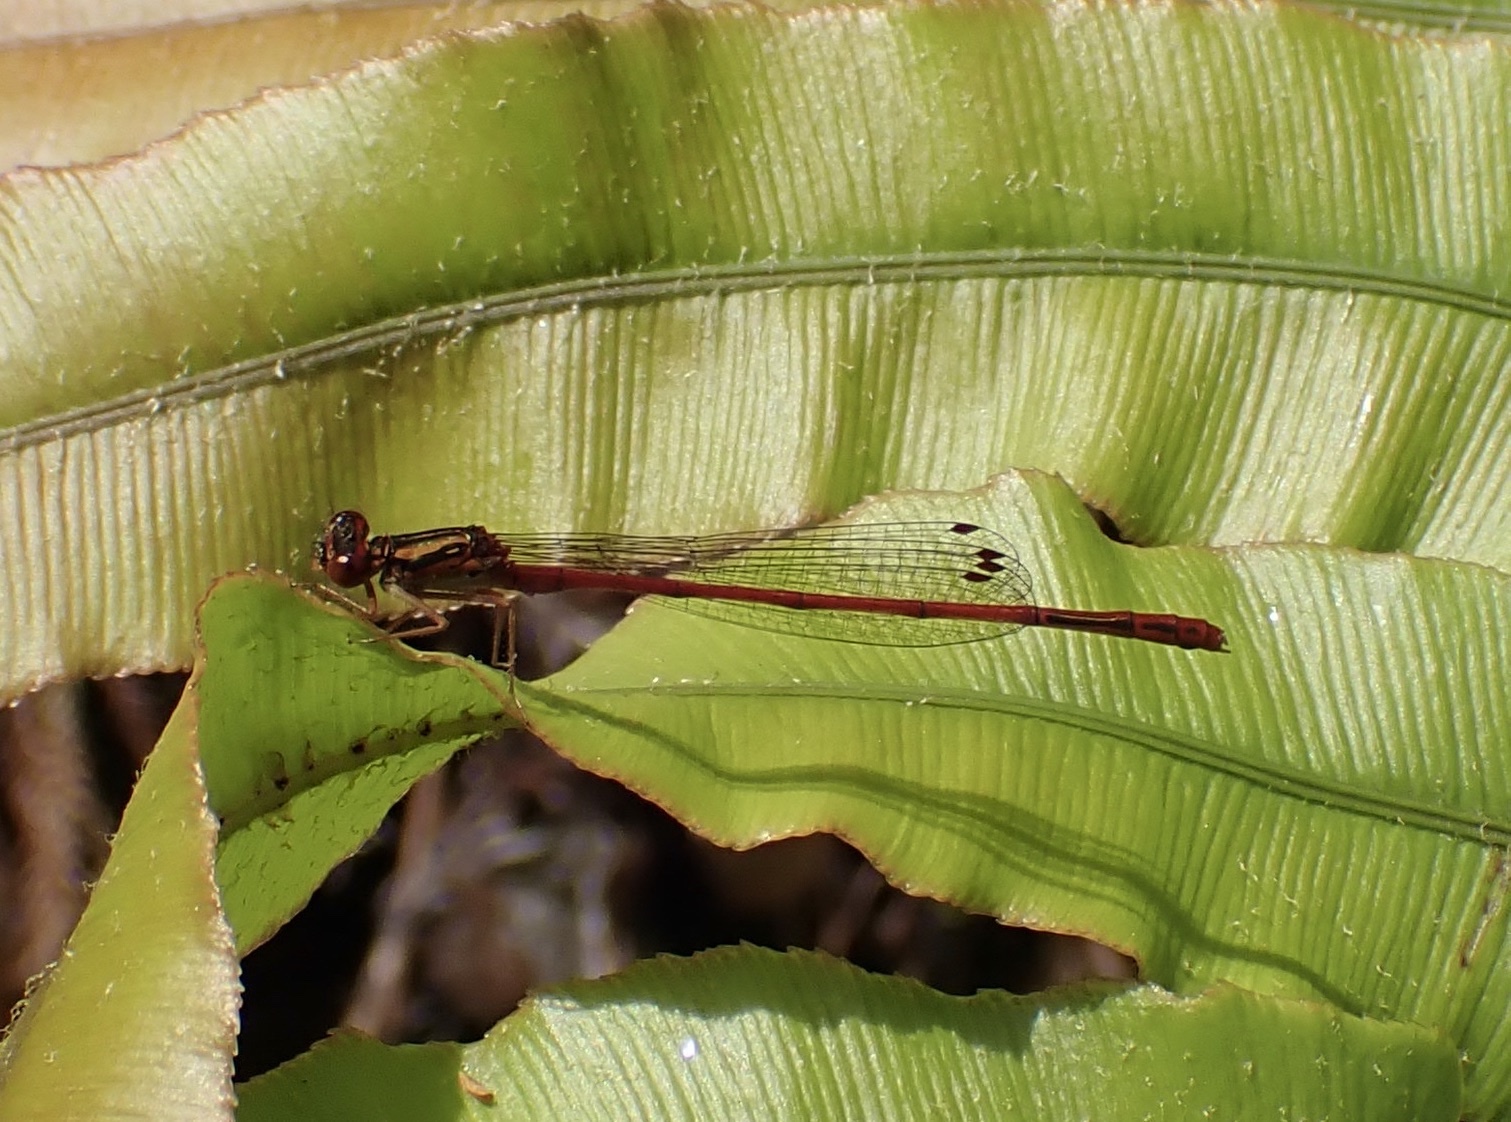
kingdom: Animalia
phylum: Arthropoda
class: Insecta
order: Odonata
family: Coenagrionidae
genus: Xanthocnemis
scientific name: Xanthocnemis zealandica
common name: Common redcoat damselfly
